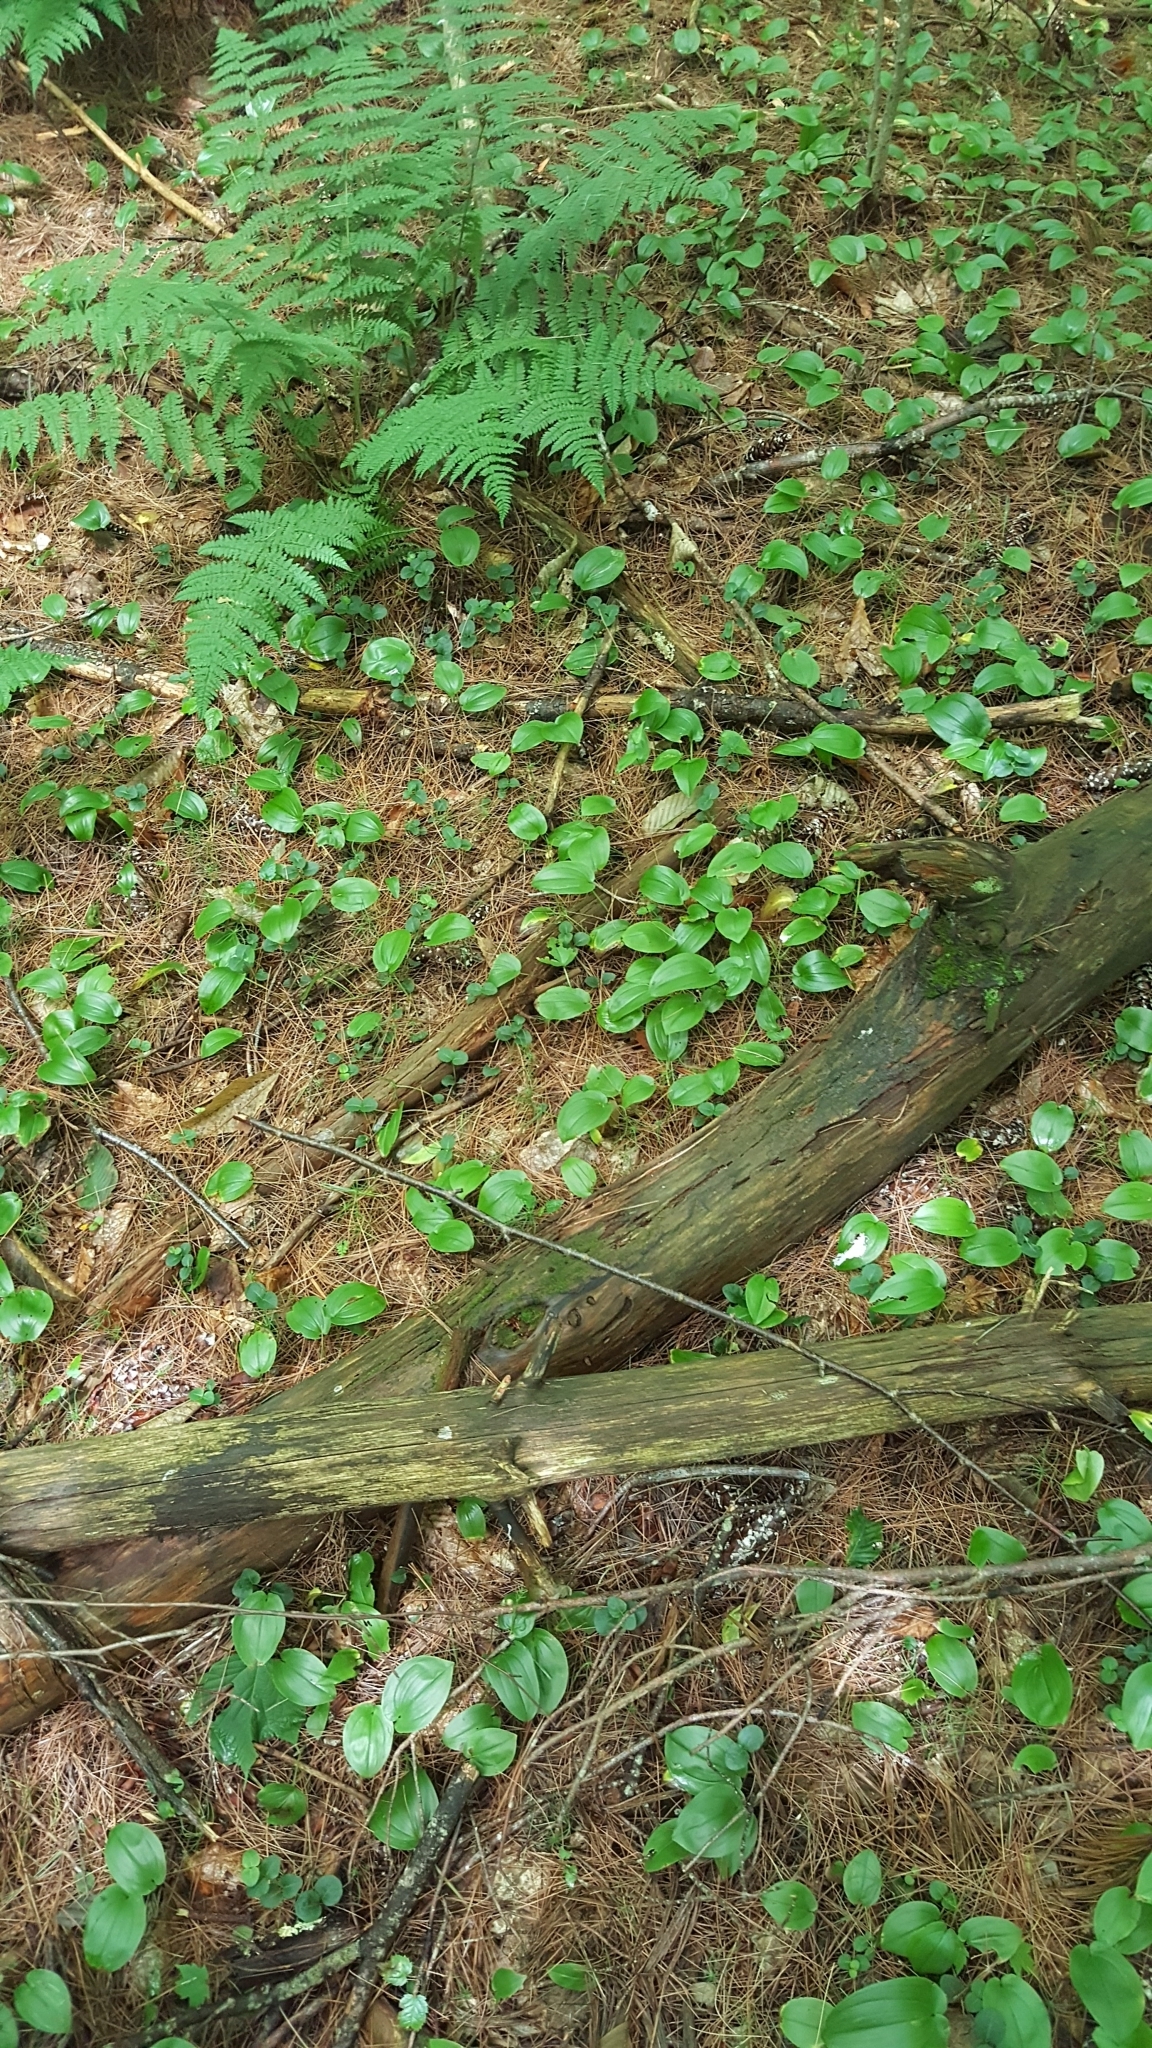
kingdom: Plantae
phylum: Tracheophyta
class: Liliopsida
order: Asparagales
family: Asparagaceae
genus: Maianthemum
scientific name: Maianthemum canadense
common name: False lily-of-the-valley
